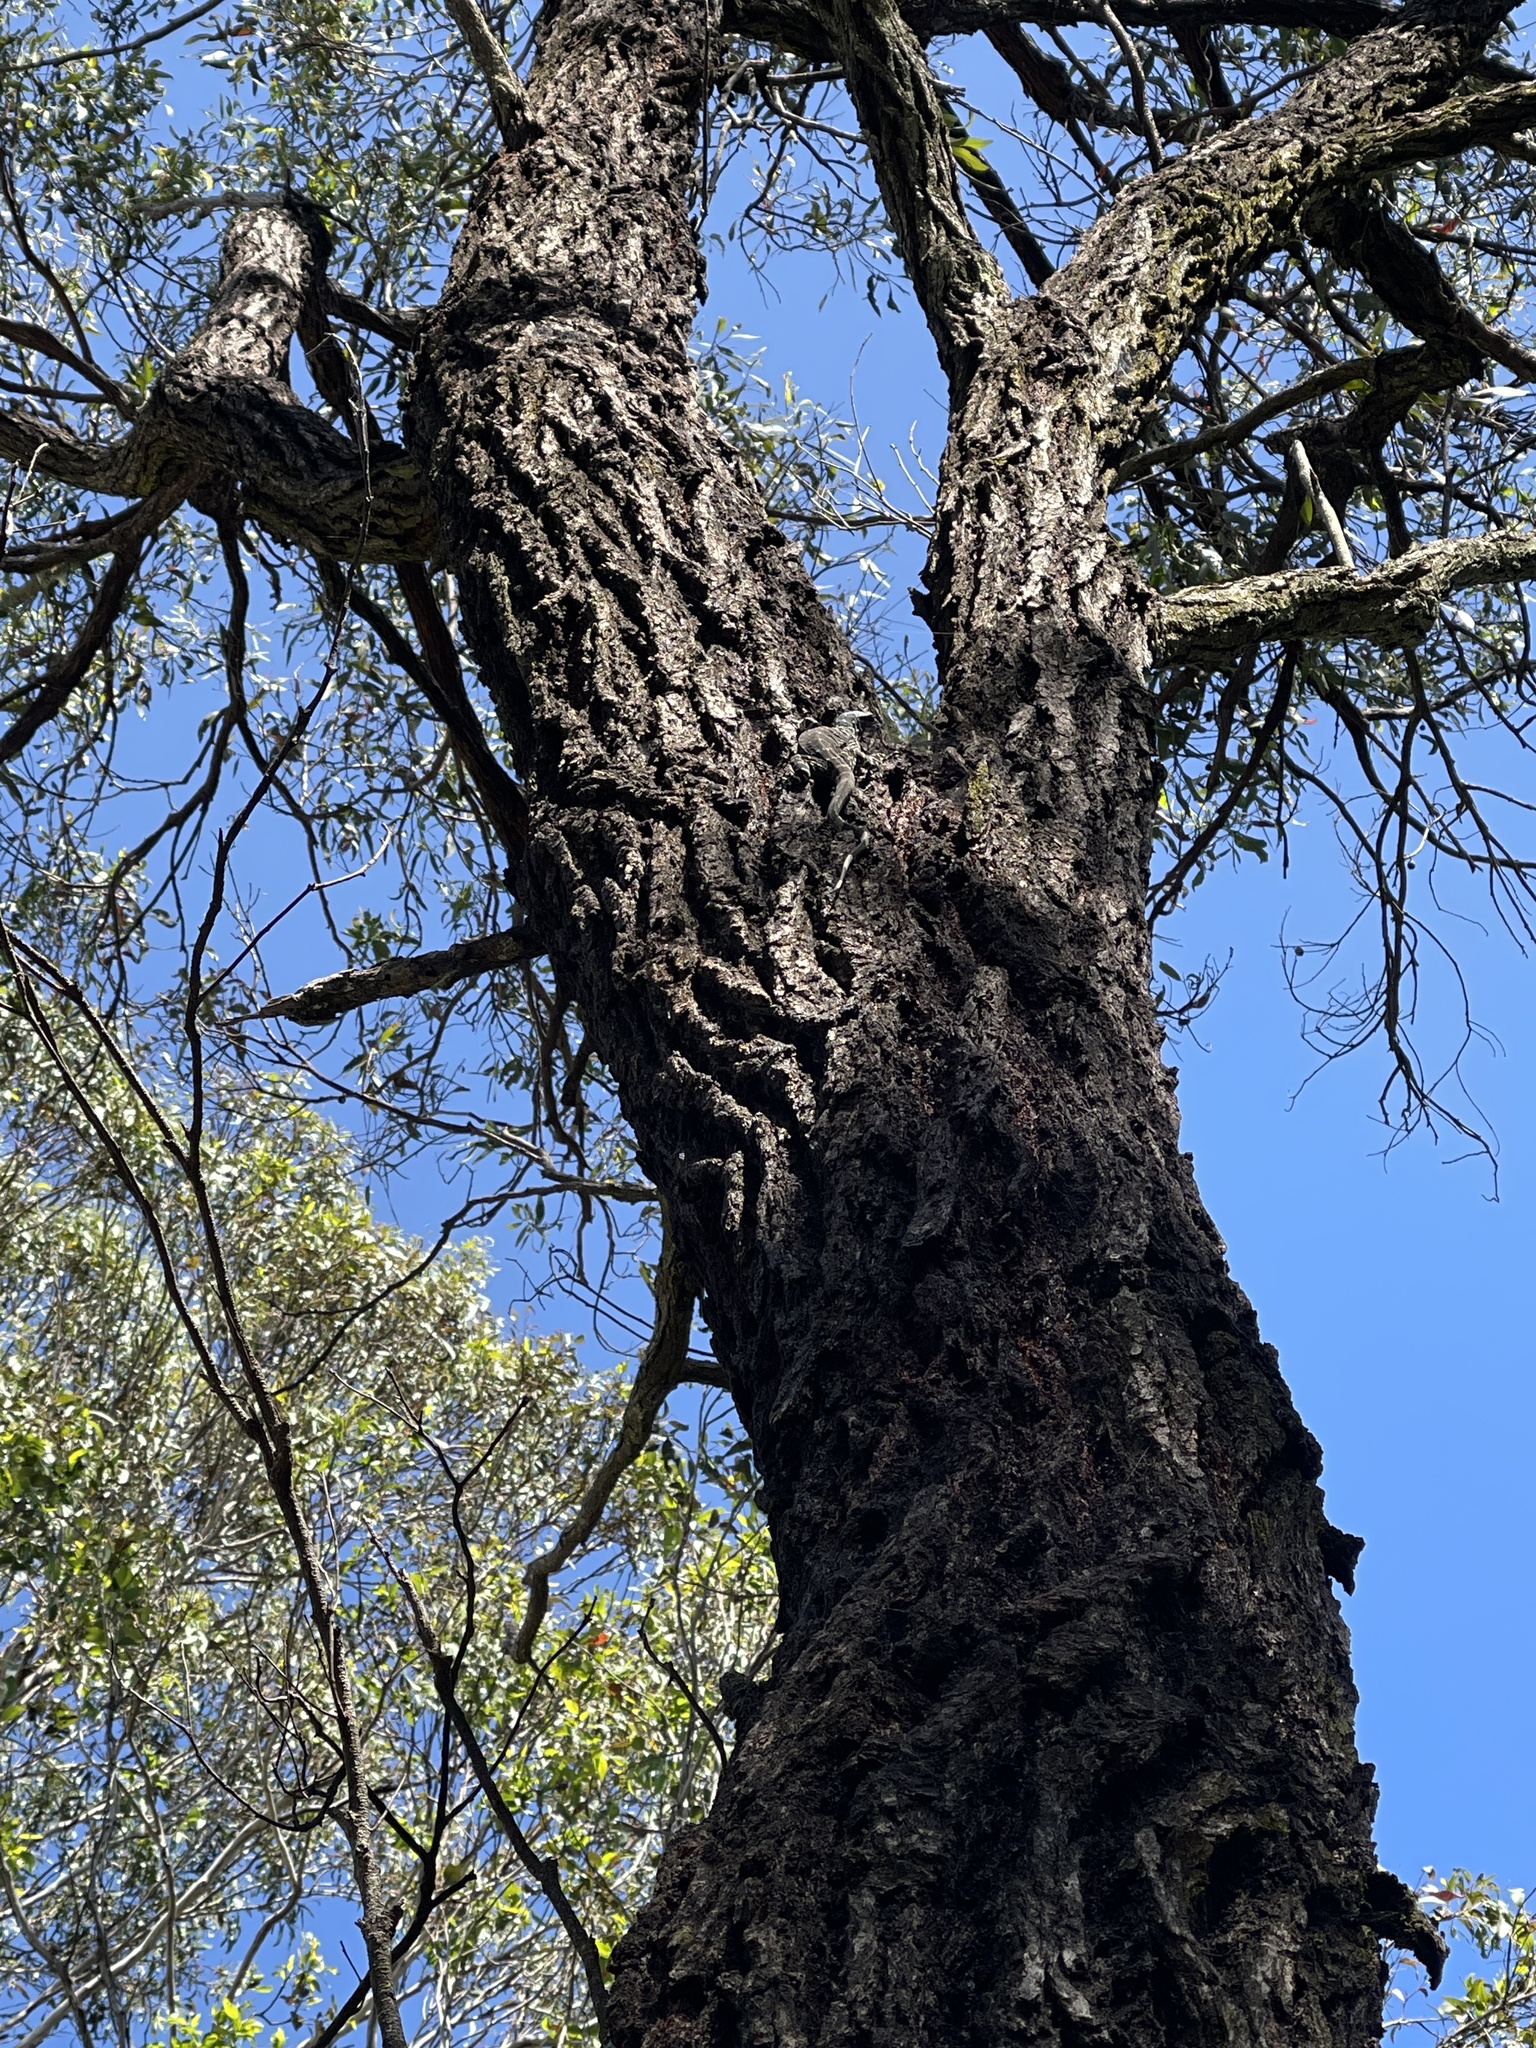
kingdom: Animalia
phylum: Chordata
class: Squamata
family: Varanidae
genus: Varanus
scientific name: Varanus varius
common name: Lace monitor
